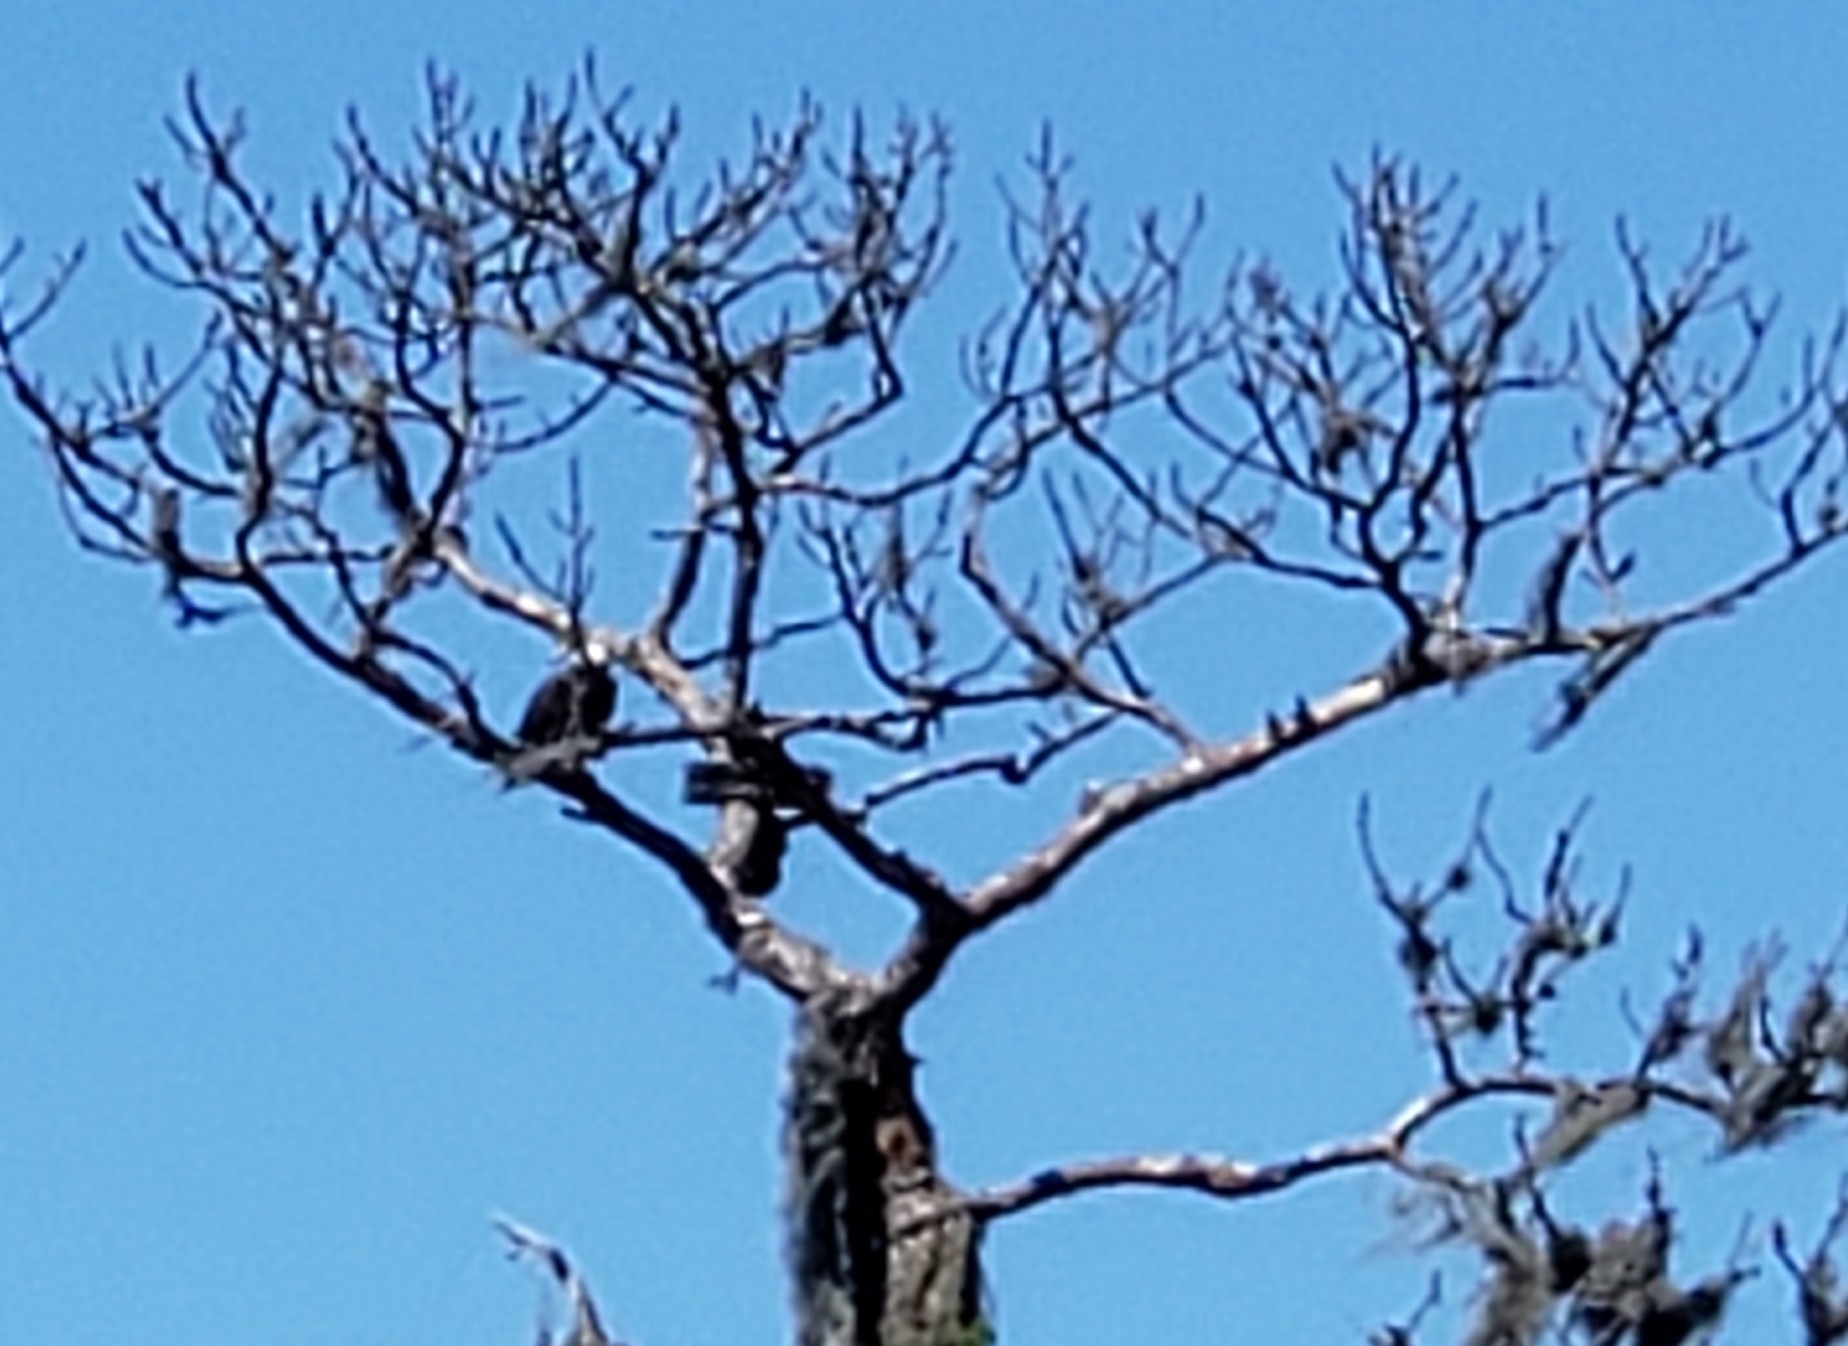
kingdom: Animalia
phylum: Chordata
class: Aves
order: Accipitriformes
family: Accipitridae
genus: Haliaeetus
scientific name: Haliaeetus leucocephalus
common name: Bald eagle
